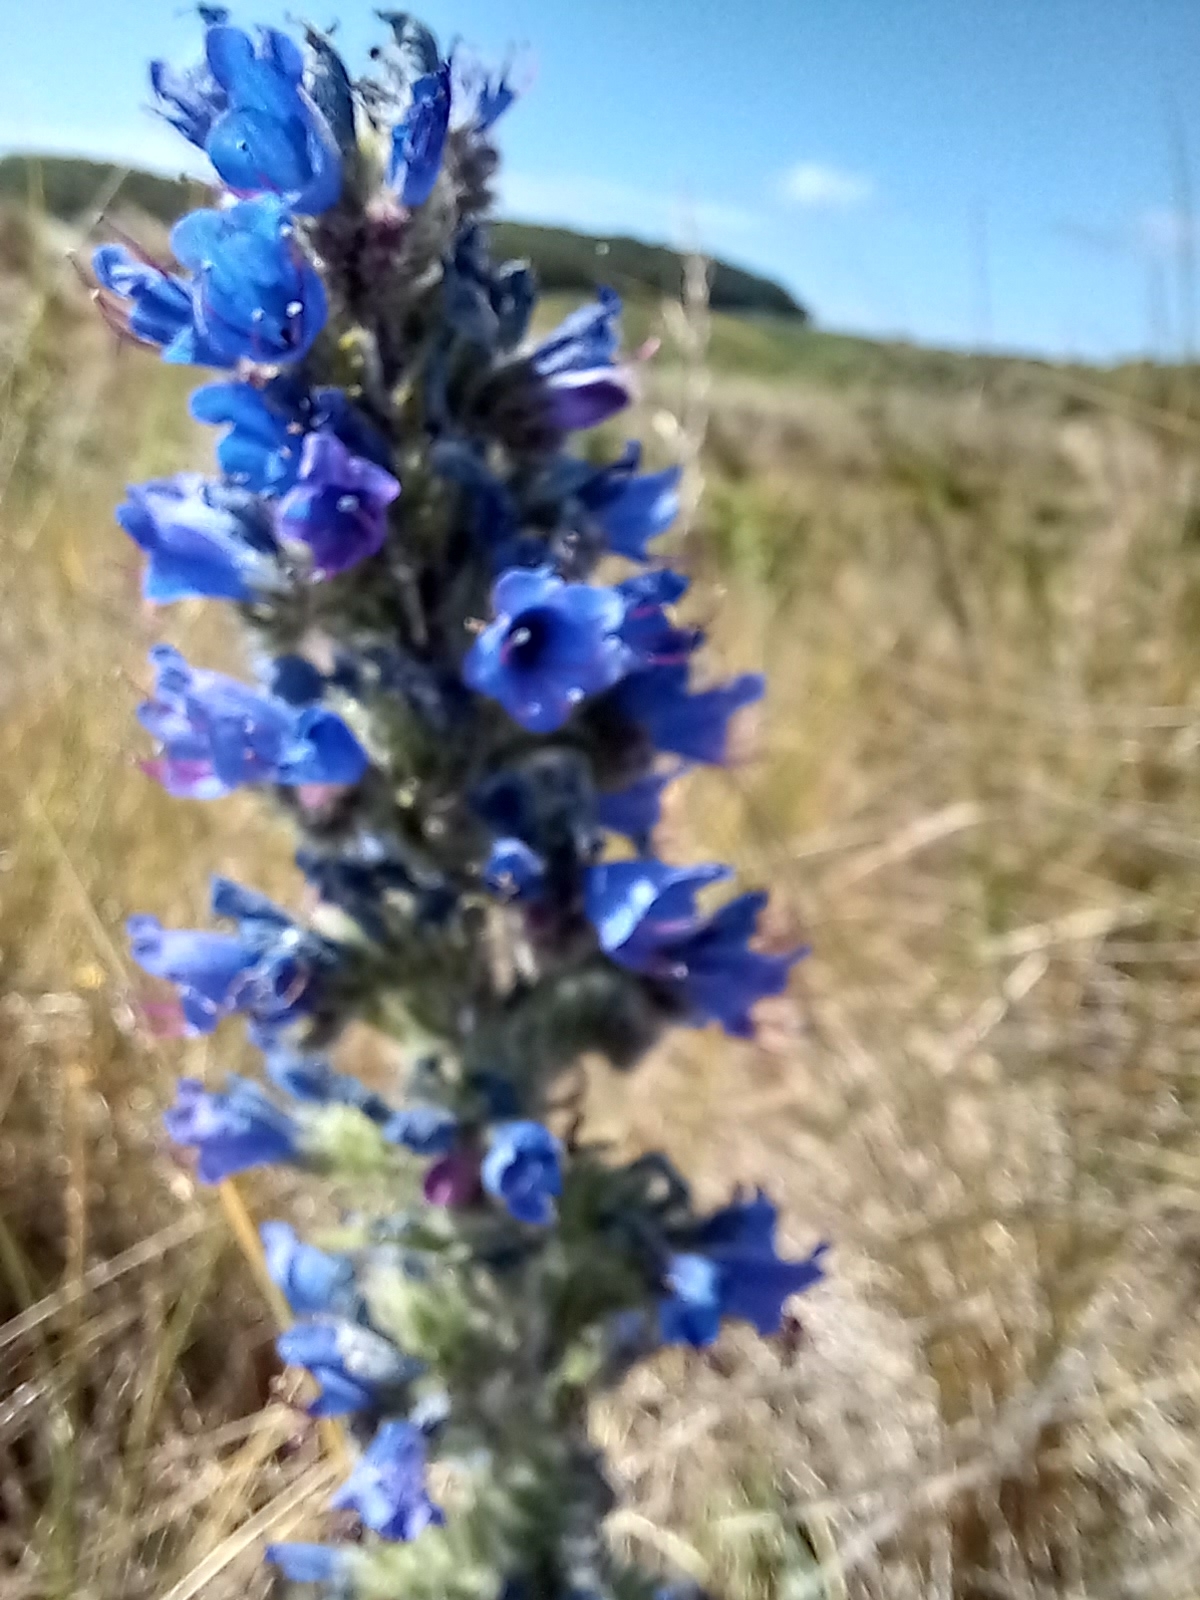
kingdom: Plantae
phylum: Tracheophyta
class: Magnoliopsida
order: Boraginales
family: Boraginaceae
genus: Echium
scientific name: Echium vulgare
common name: Common viper's bugloss
